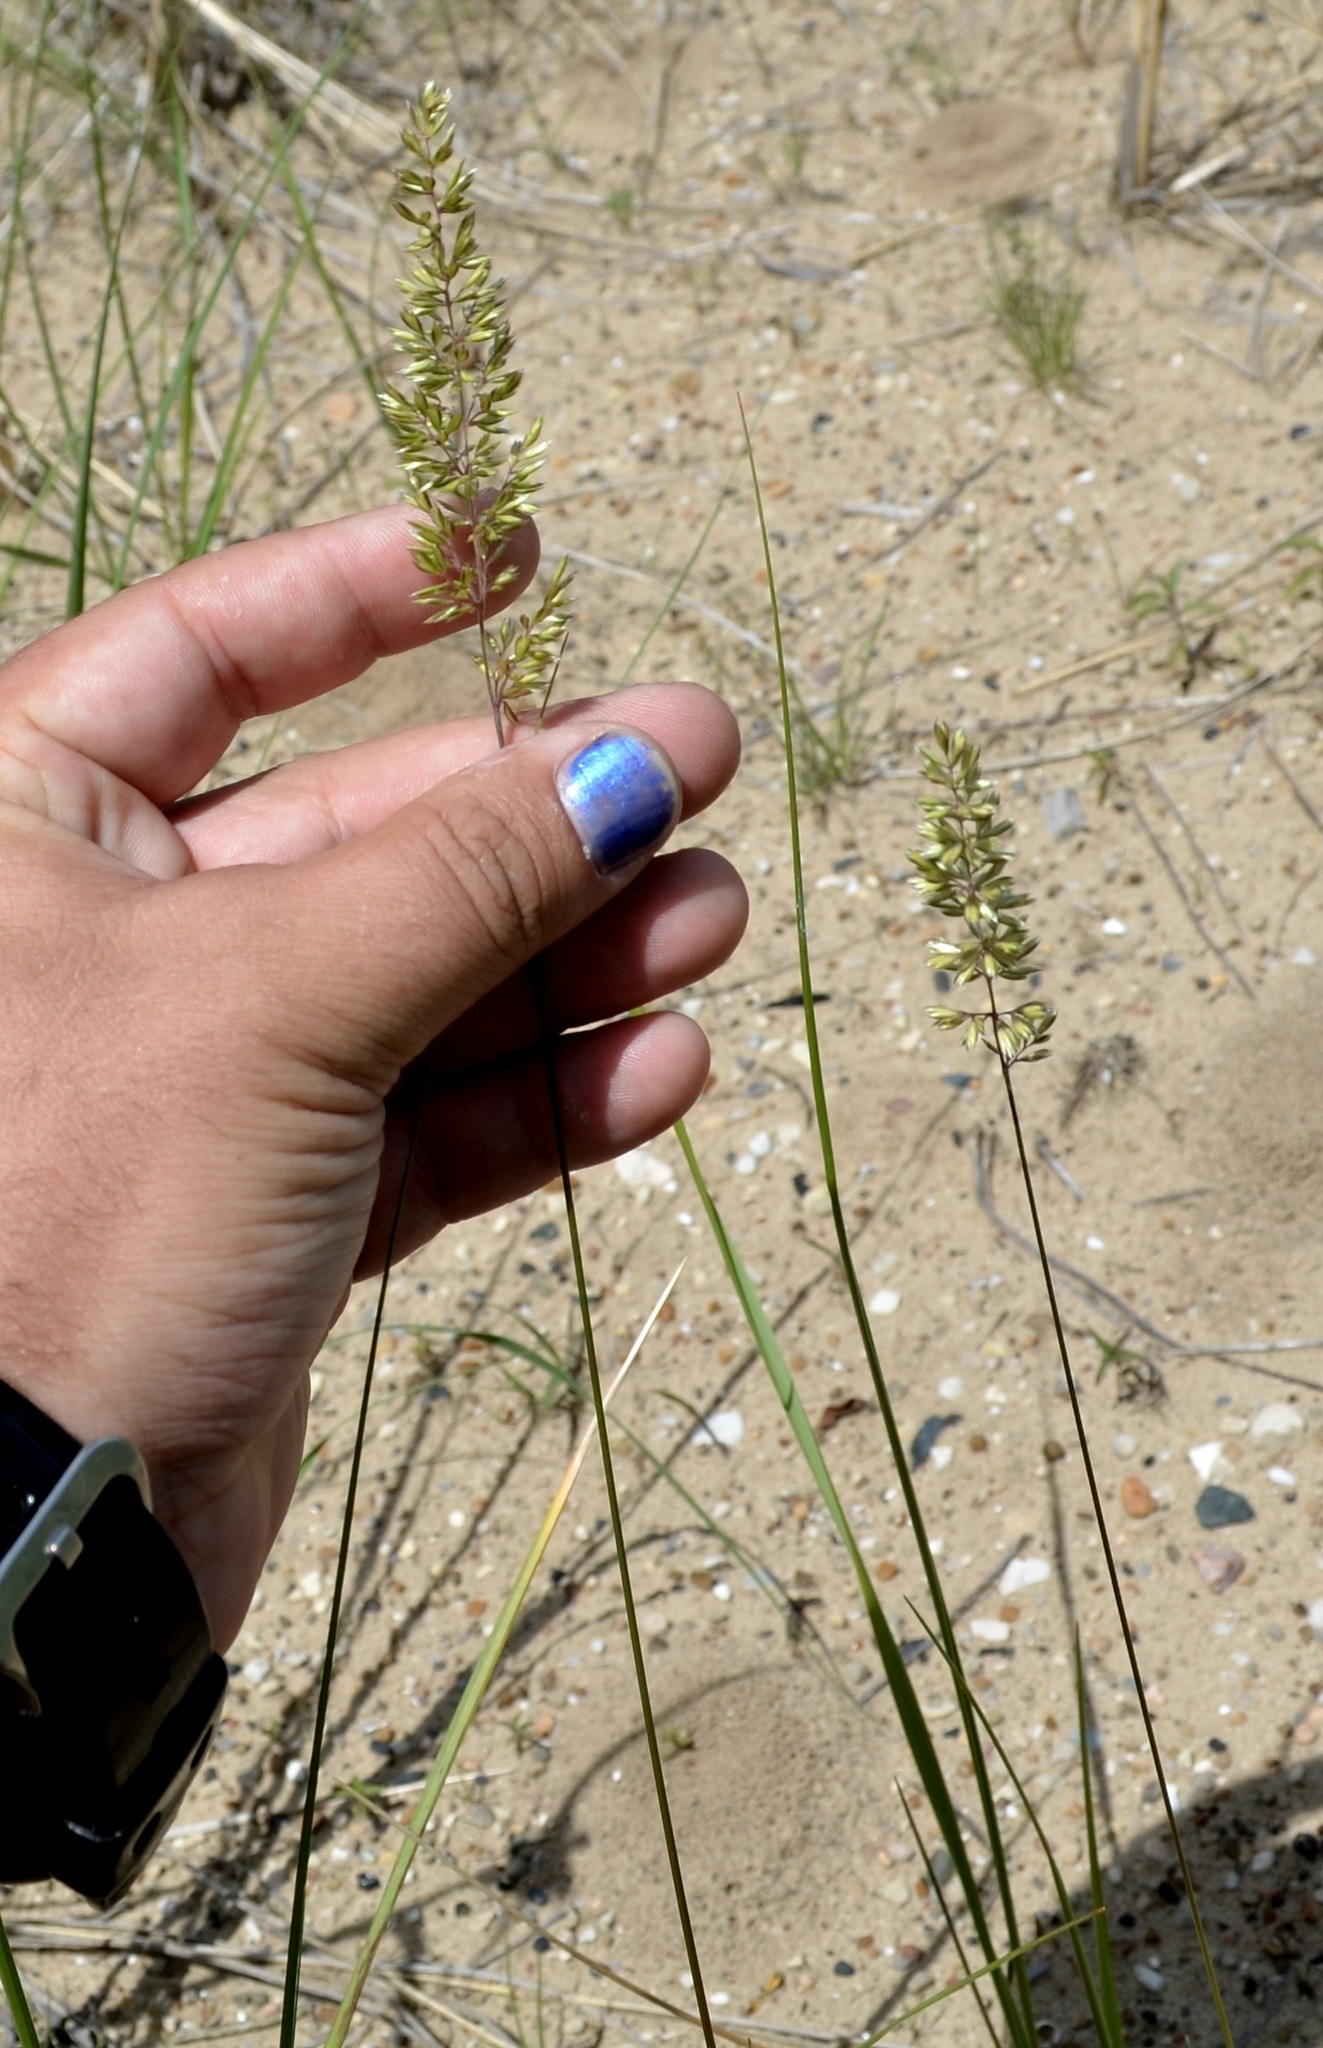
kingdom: Plantae
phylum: Tracheophyta
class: Liliopsida
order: Poales
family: Poaceae
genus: Koeleria
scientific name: Koeleria macrantha
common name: Crested hair-grass
